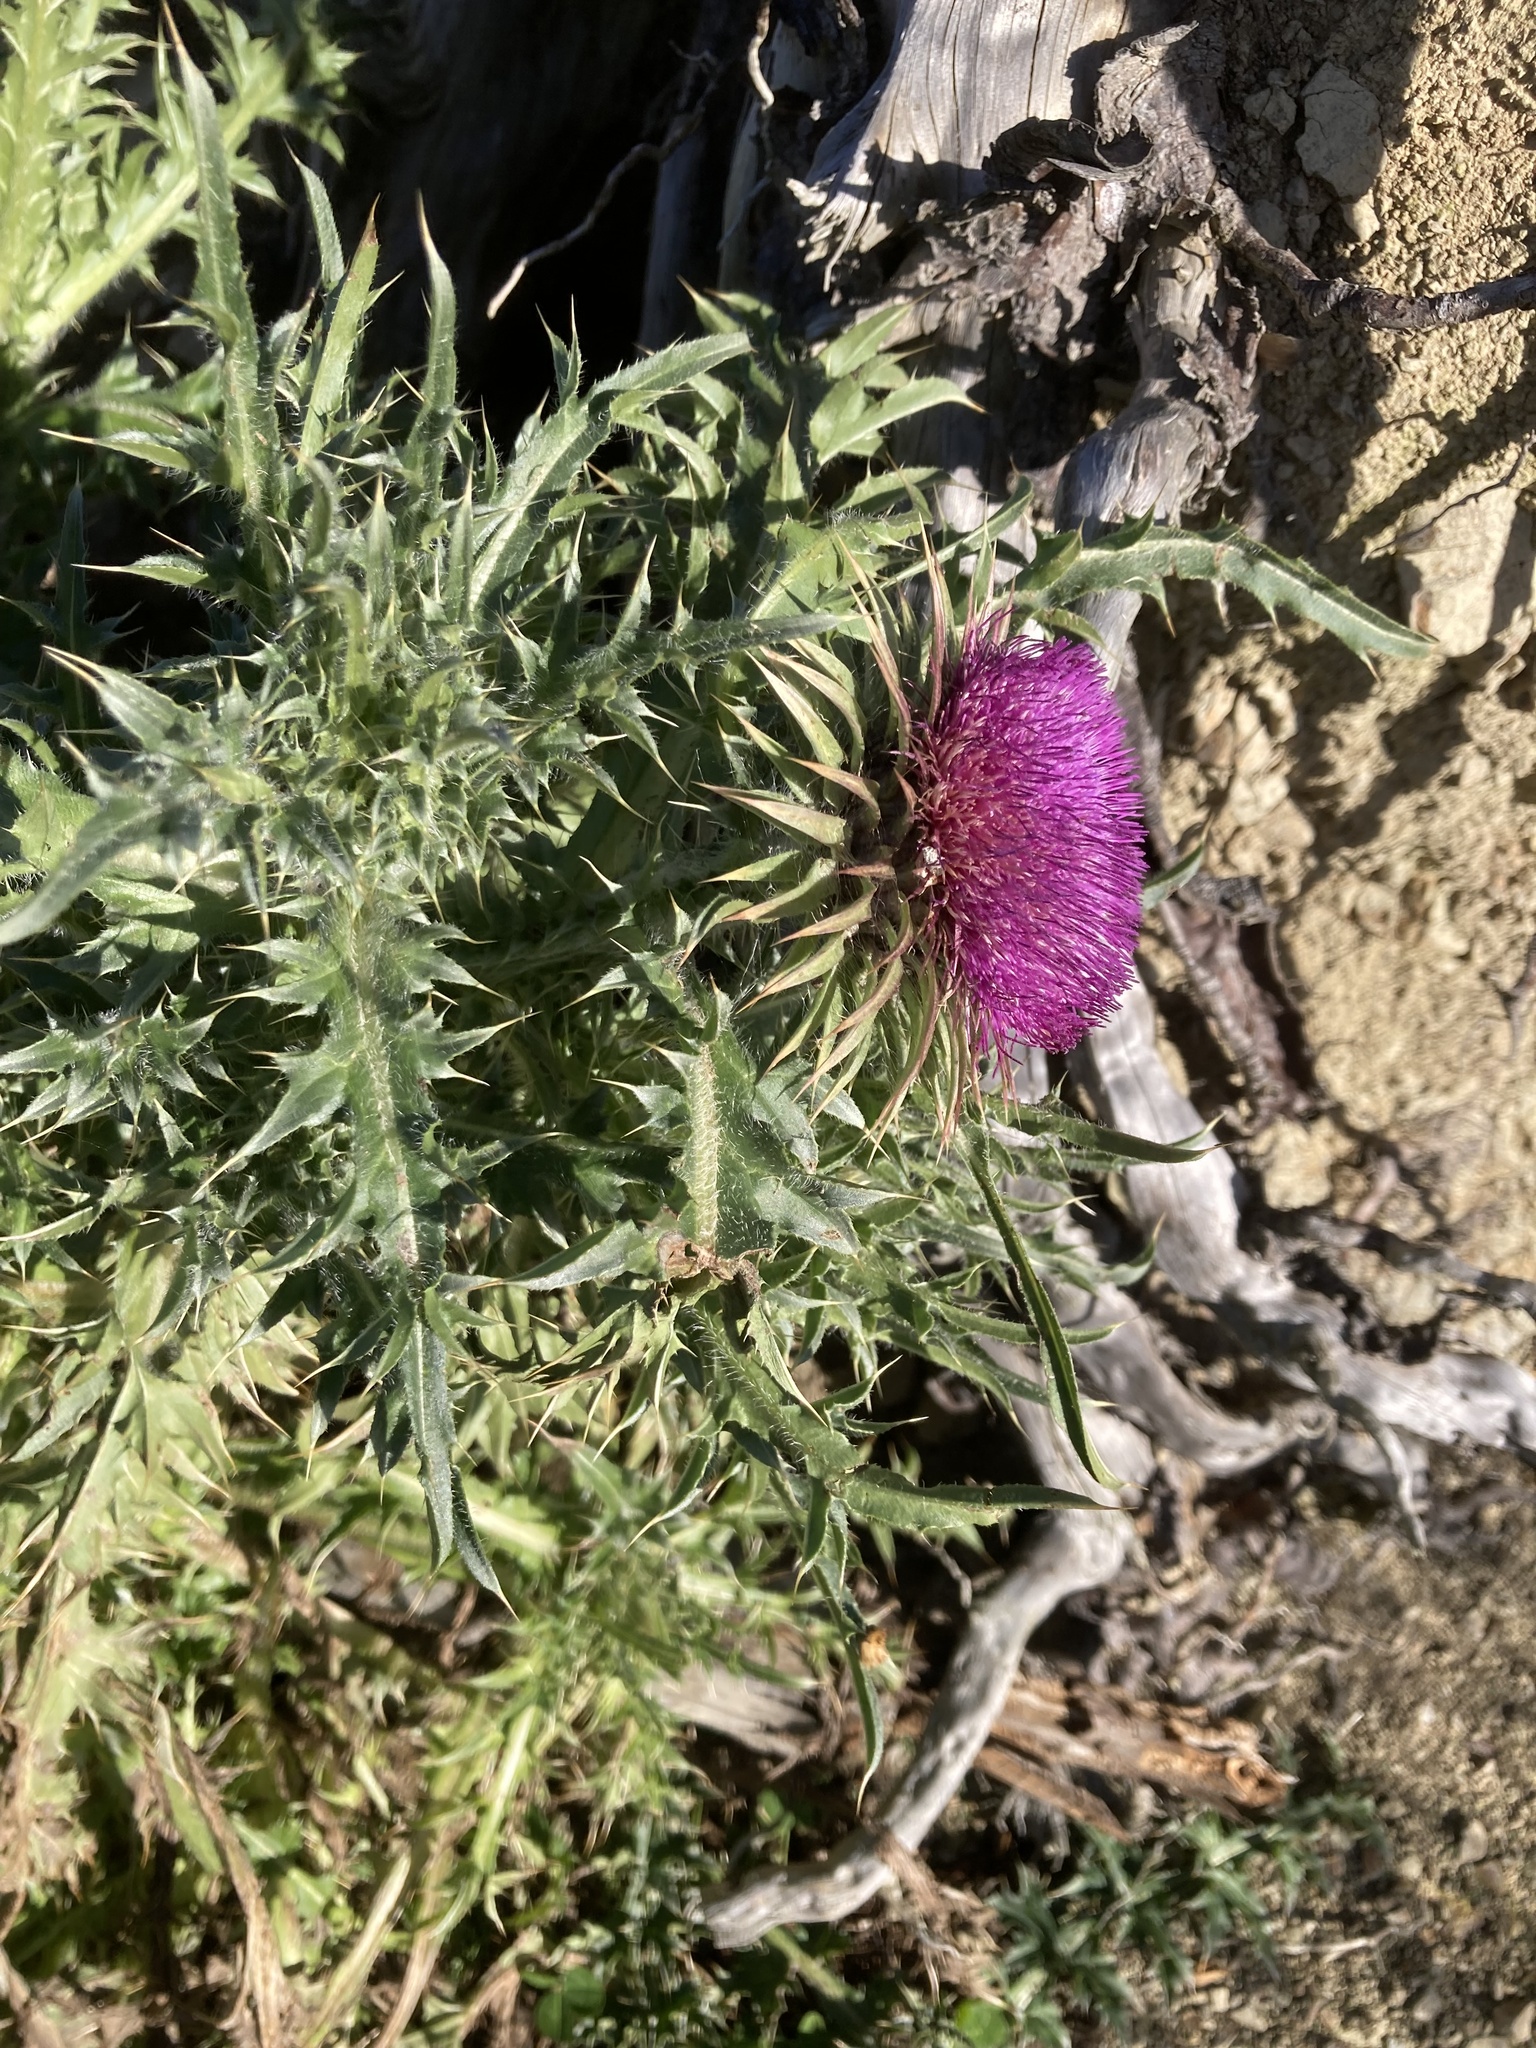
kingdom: Plantae
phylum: Tracheophyta
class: Magnoliopsida
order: Asterales
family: Asteraceae
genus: Carduus
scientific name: Carduus nutans
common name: Musk thistle
